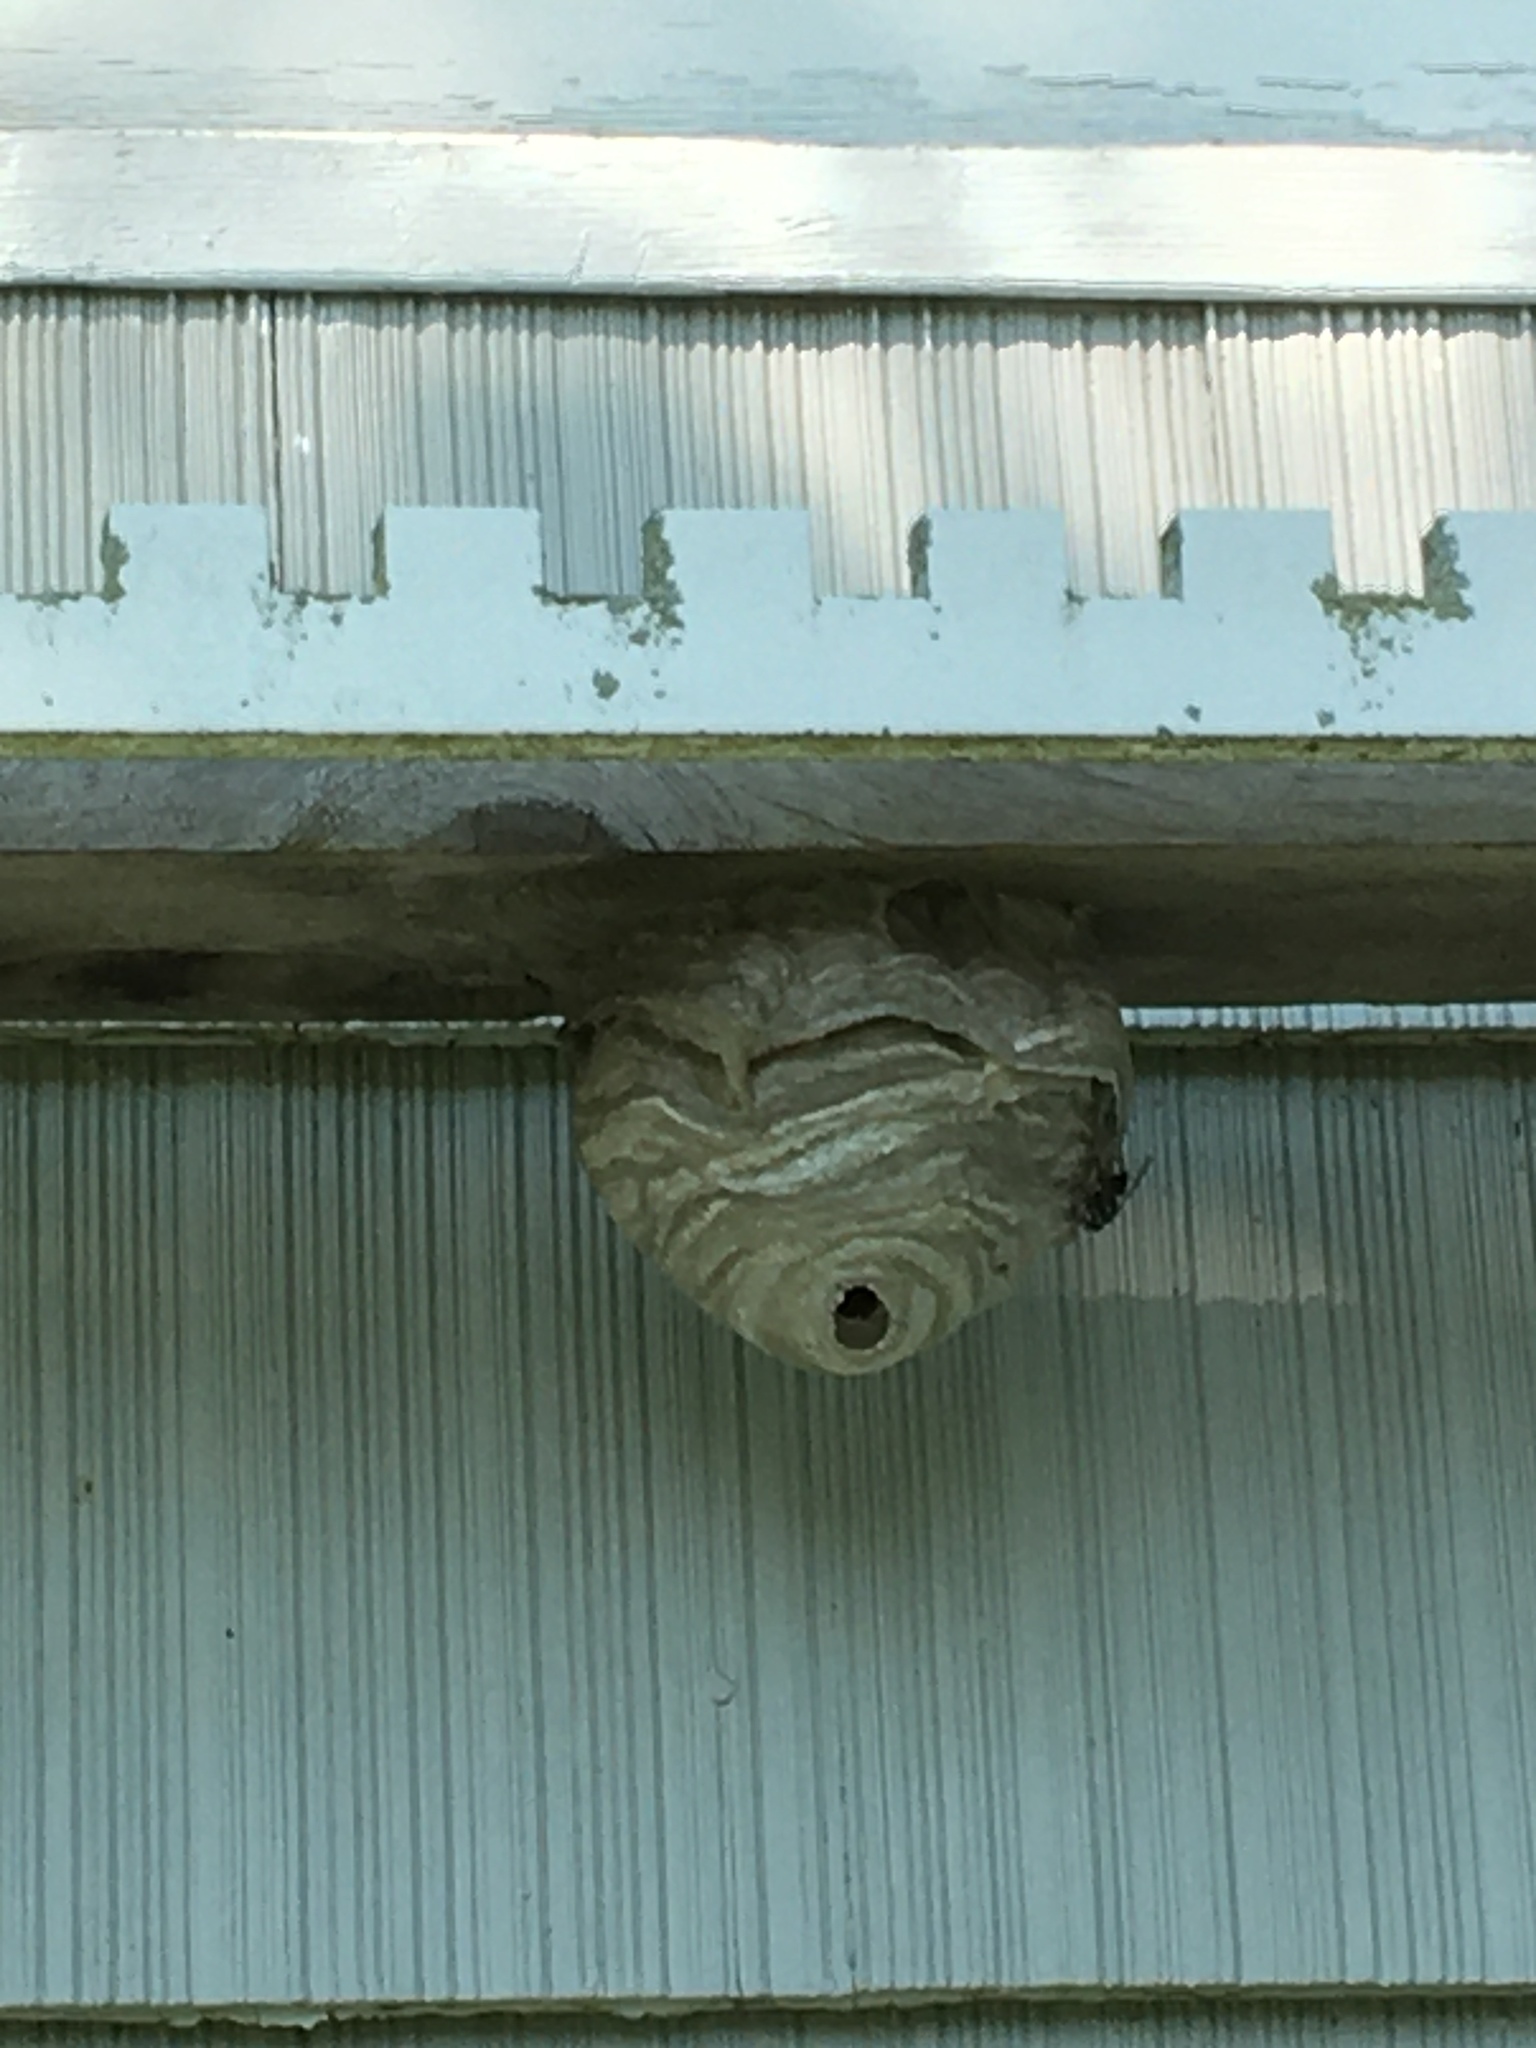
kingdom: Animalia
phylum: Arthropoda
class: Insecta
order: Hymenoptera
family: Vespidae
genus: Dolichovespula
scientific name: Dolichovespula maculata
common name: Bald-faced hornet
